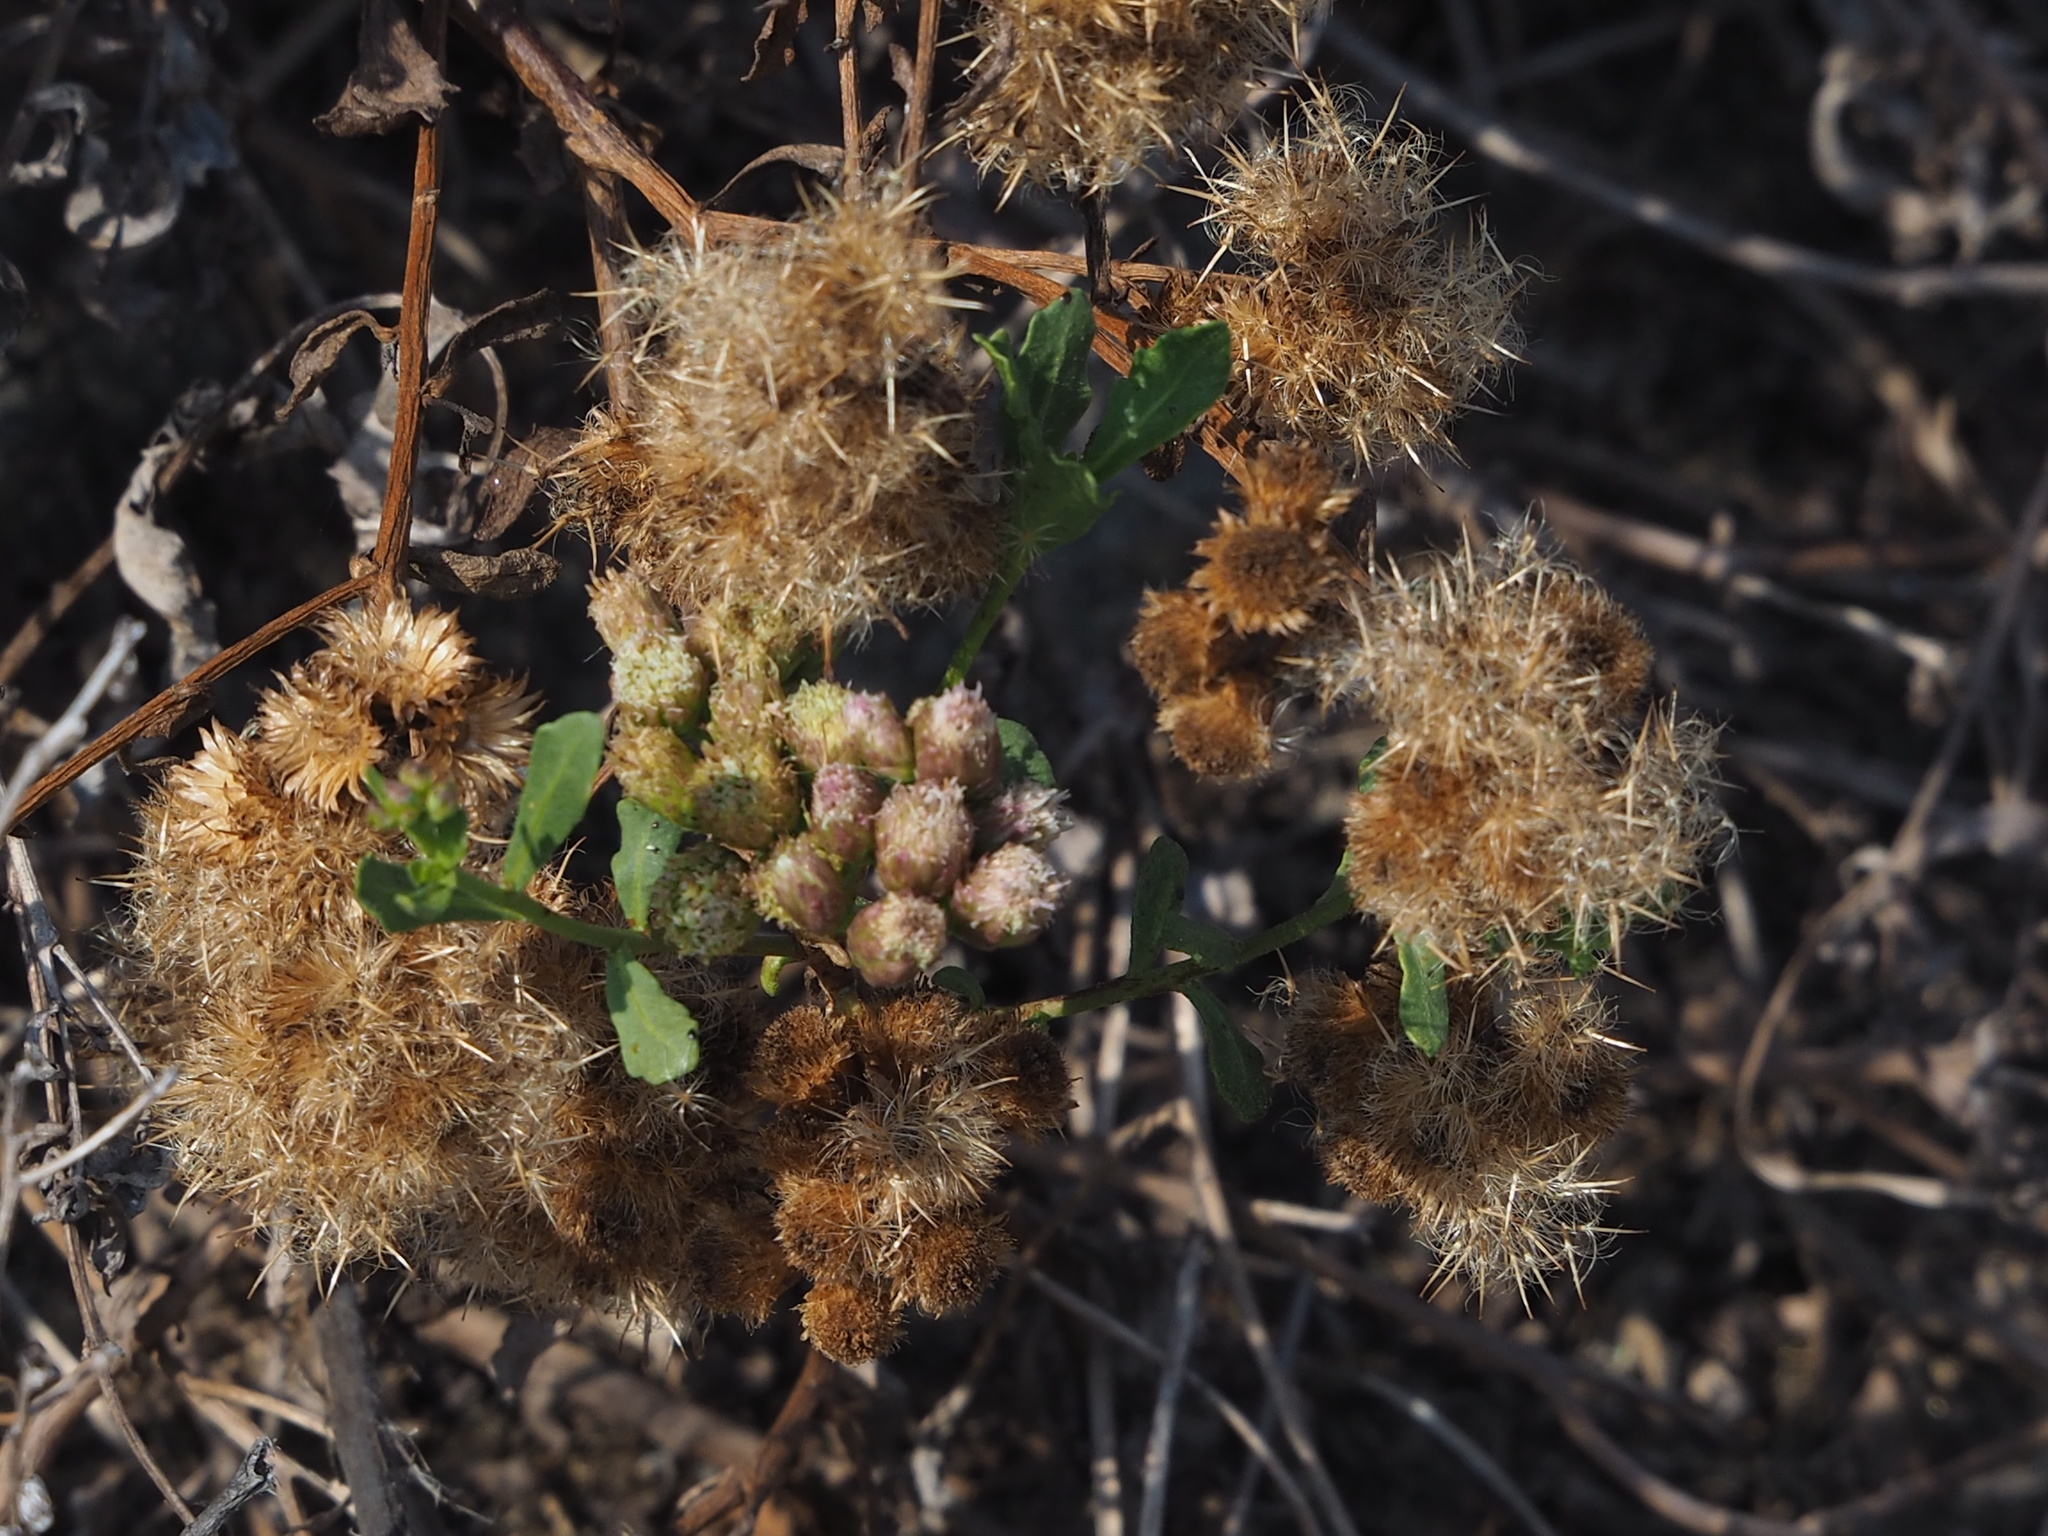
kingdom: Plantae
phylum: Tracheophyta
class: Magnoliopsida
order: Asterales
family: Asteraceae
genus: Pluchea
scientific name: Pluchea pteropoda
